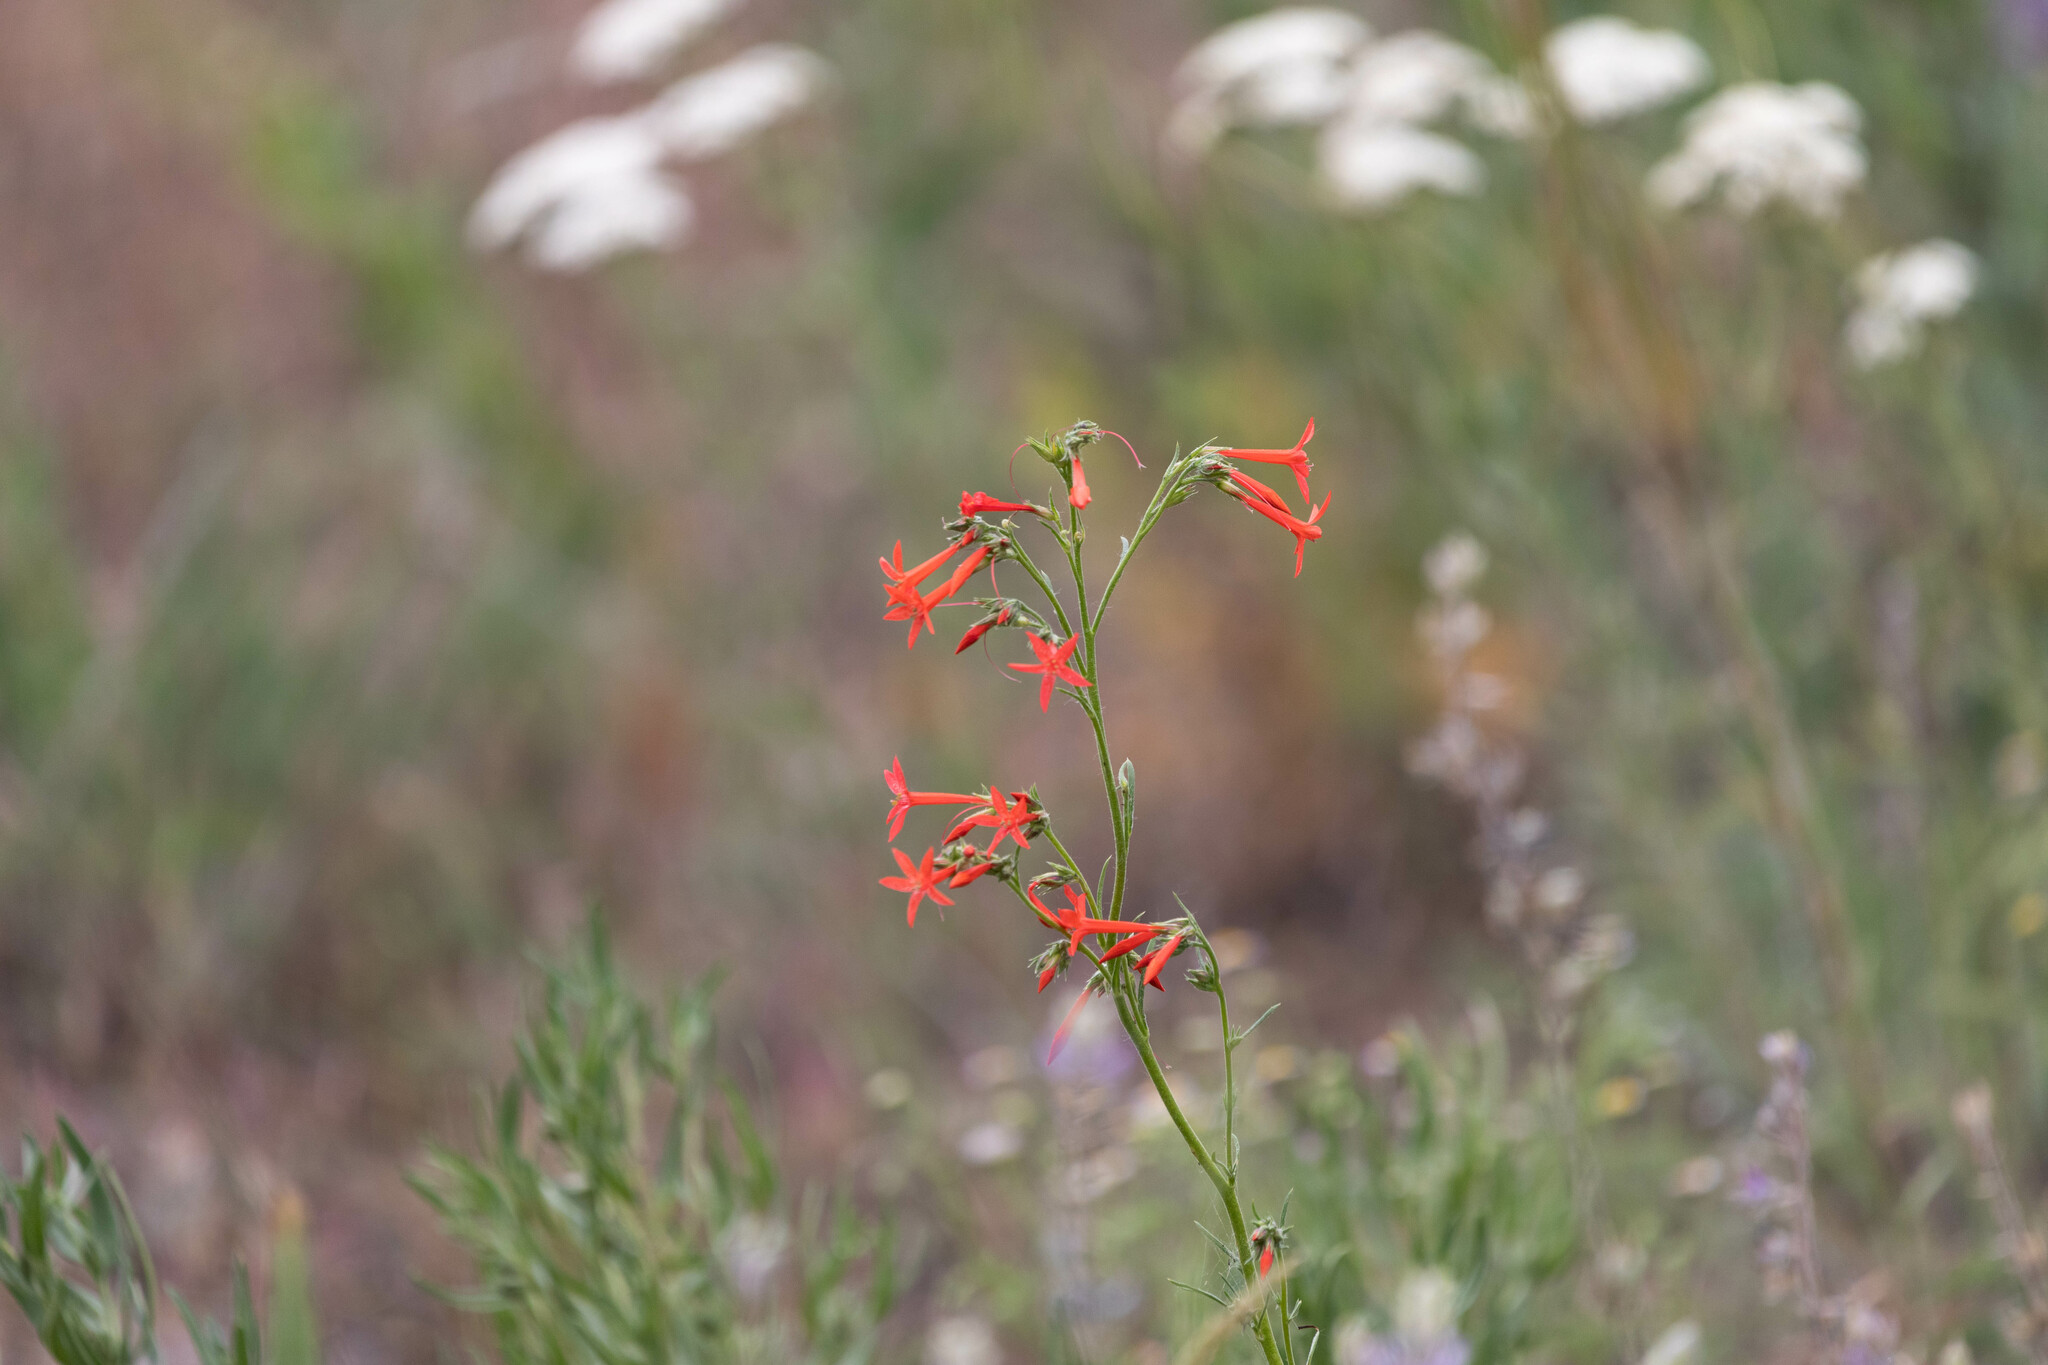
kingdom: Plantae
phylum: Tracheophyta
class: Magnoliopsida
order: Ericales
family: Polemoniaceae
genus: Ipomopsis
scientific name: Ipomopsis aggregata
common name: Scarlet gilia
